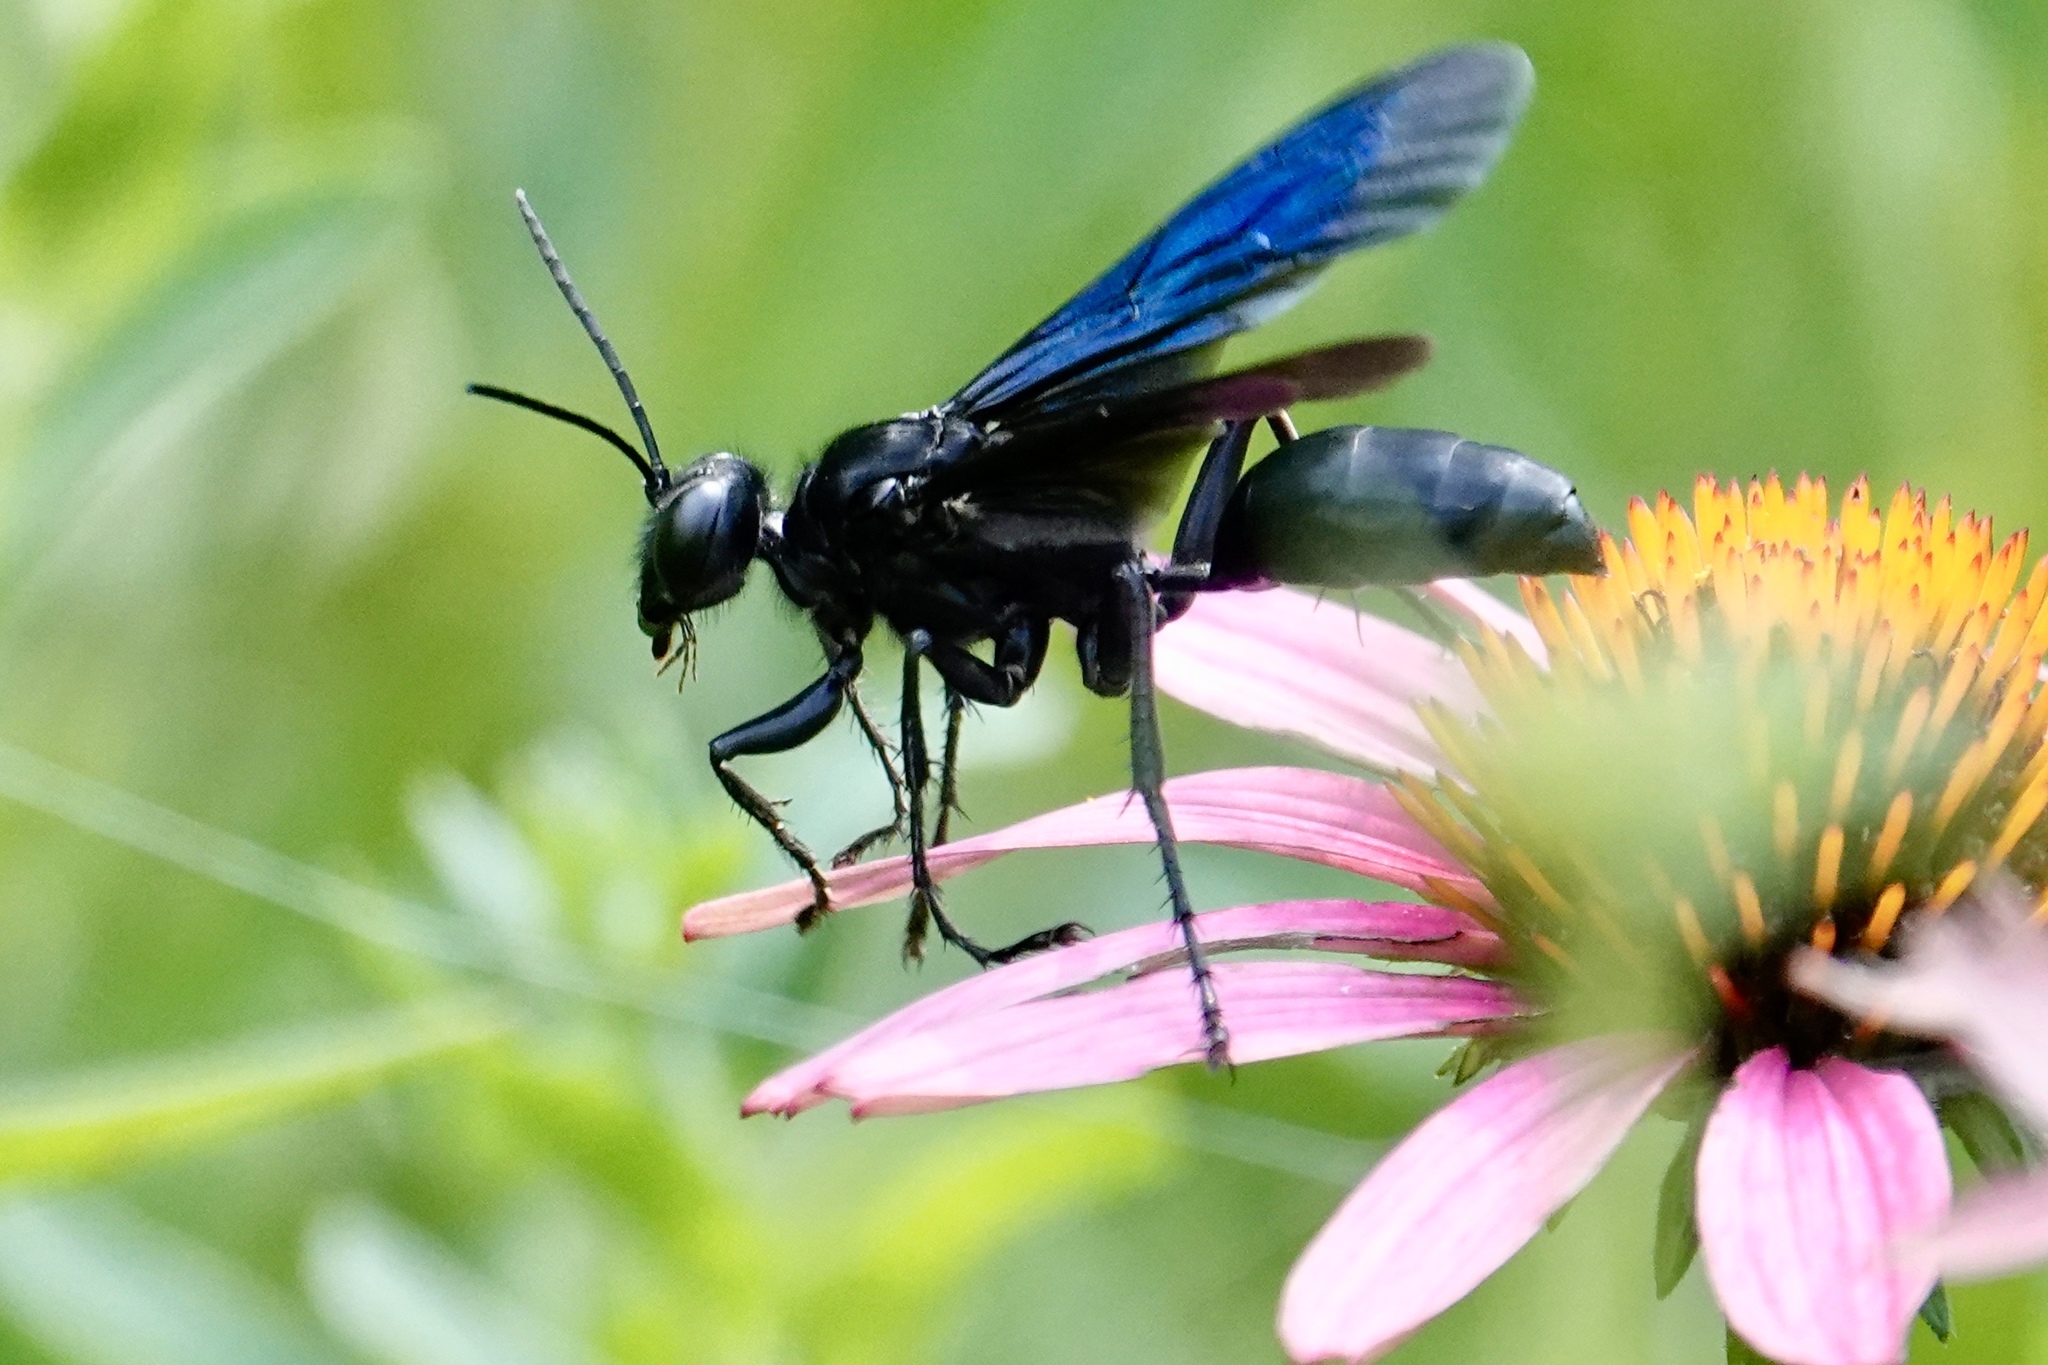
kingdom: Animalia
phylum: Arthropoda
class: Insecta
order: Hymenoptera
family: Sphecidae
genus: Sphex
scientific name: Sphex pensylvanicus
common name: Great black digger wasp
